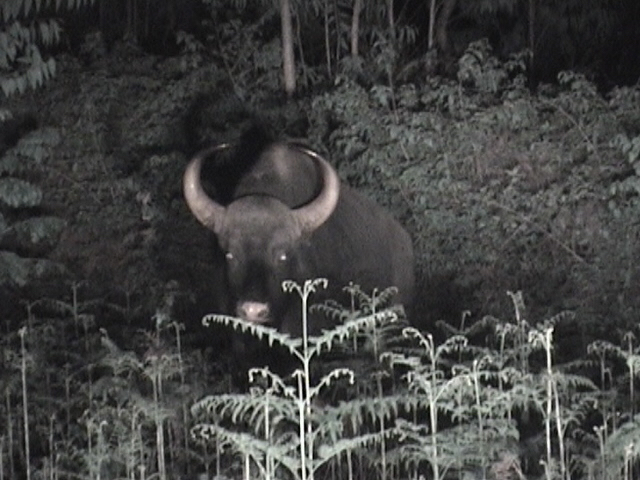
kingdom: Animalia
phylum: Chordata
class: Mammalia
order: Artiodactyla
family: Bovidae
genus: Bos
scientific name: Bos frontalis
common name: Gaur
